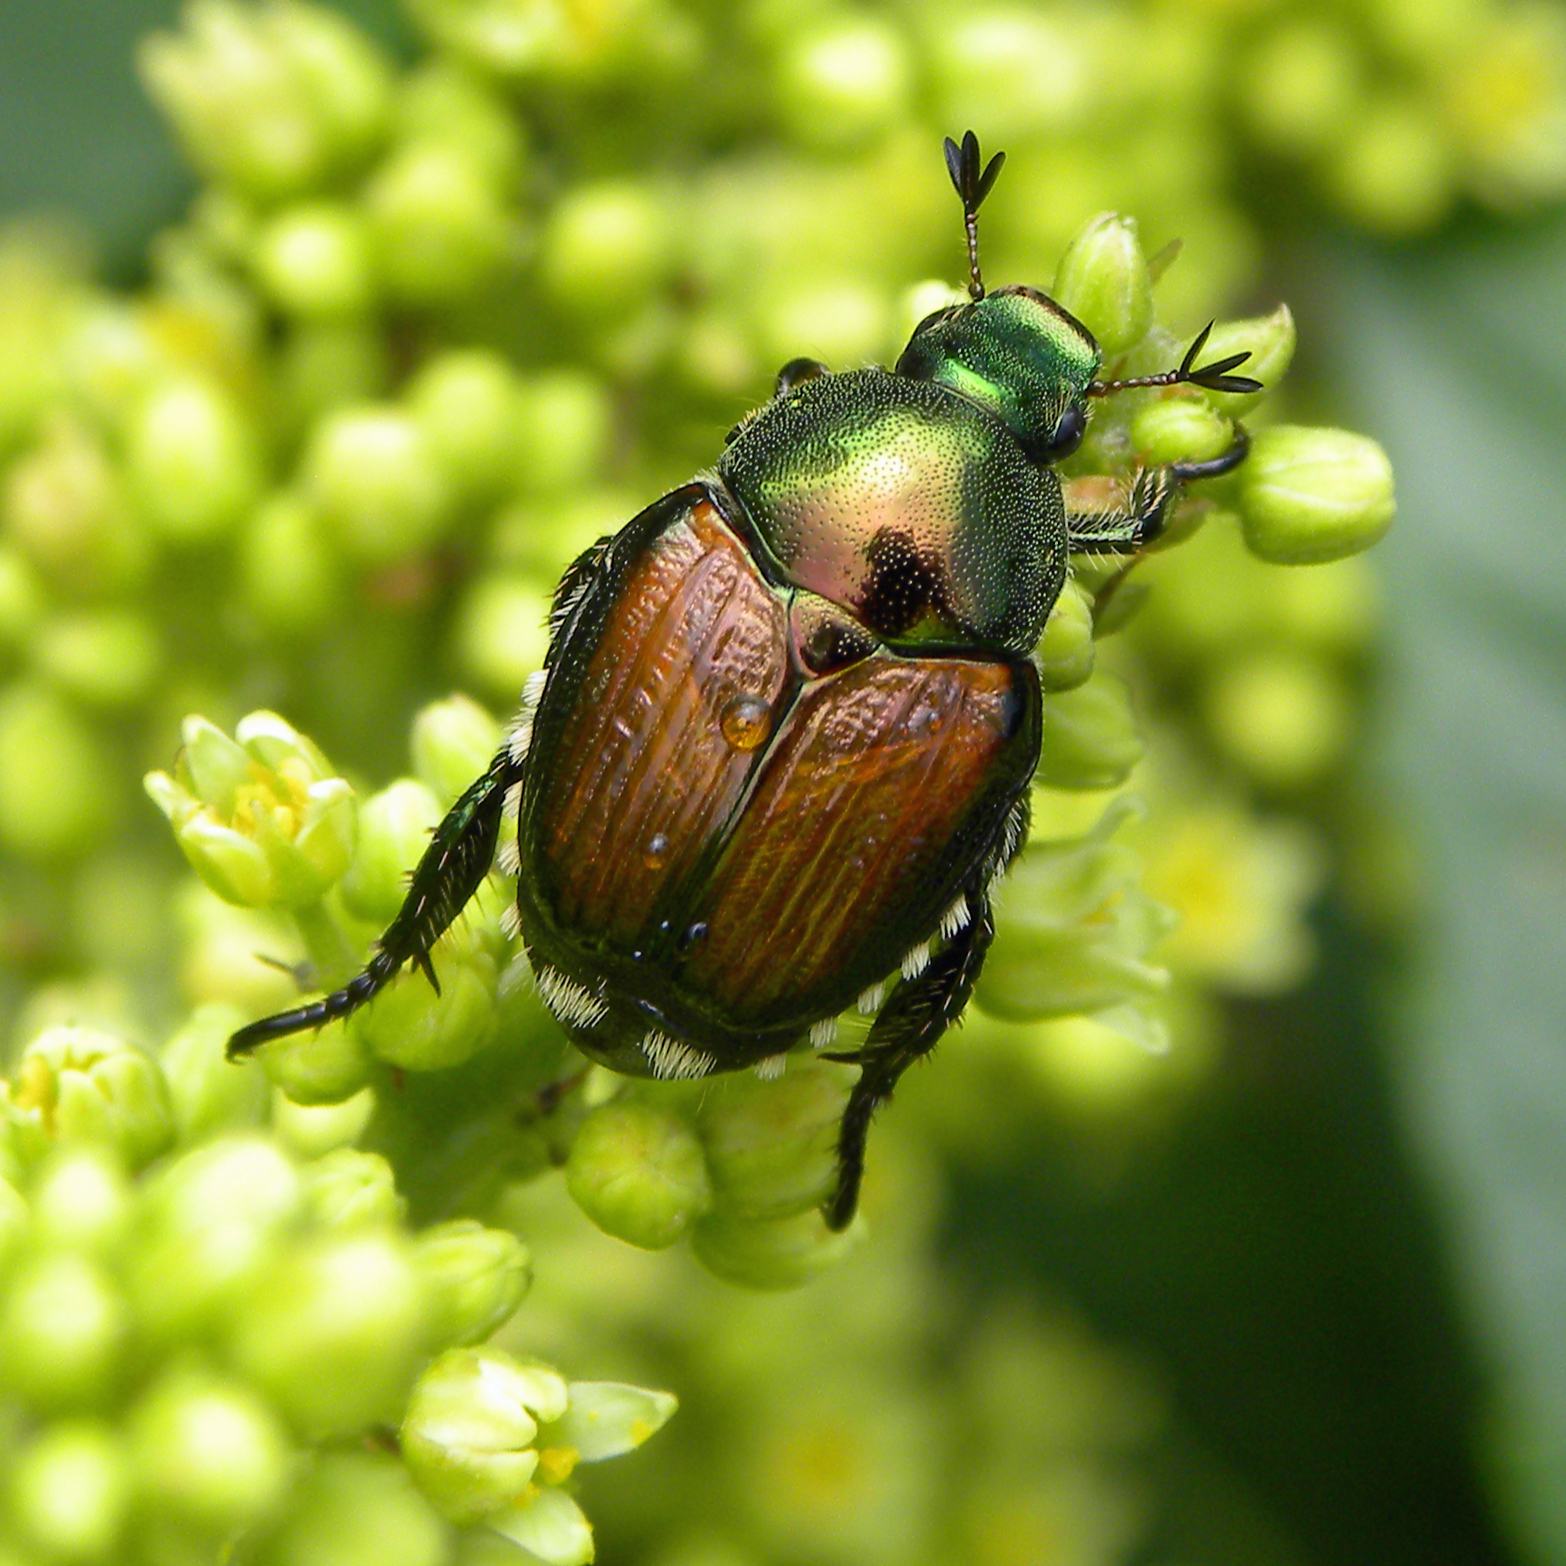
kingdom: Animalia
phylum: Arthropoda
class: Insecta
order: Coleoptera
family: Scarabaeidae
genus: Popillia
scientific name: Popillia japonica
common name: Japanese beetle
